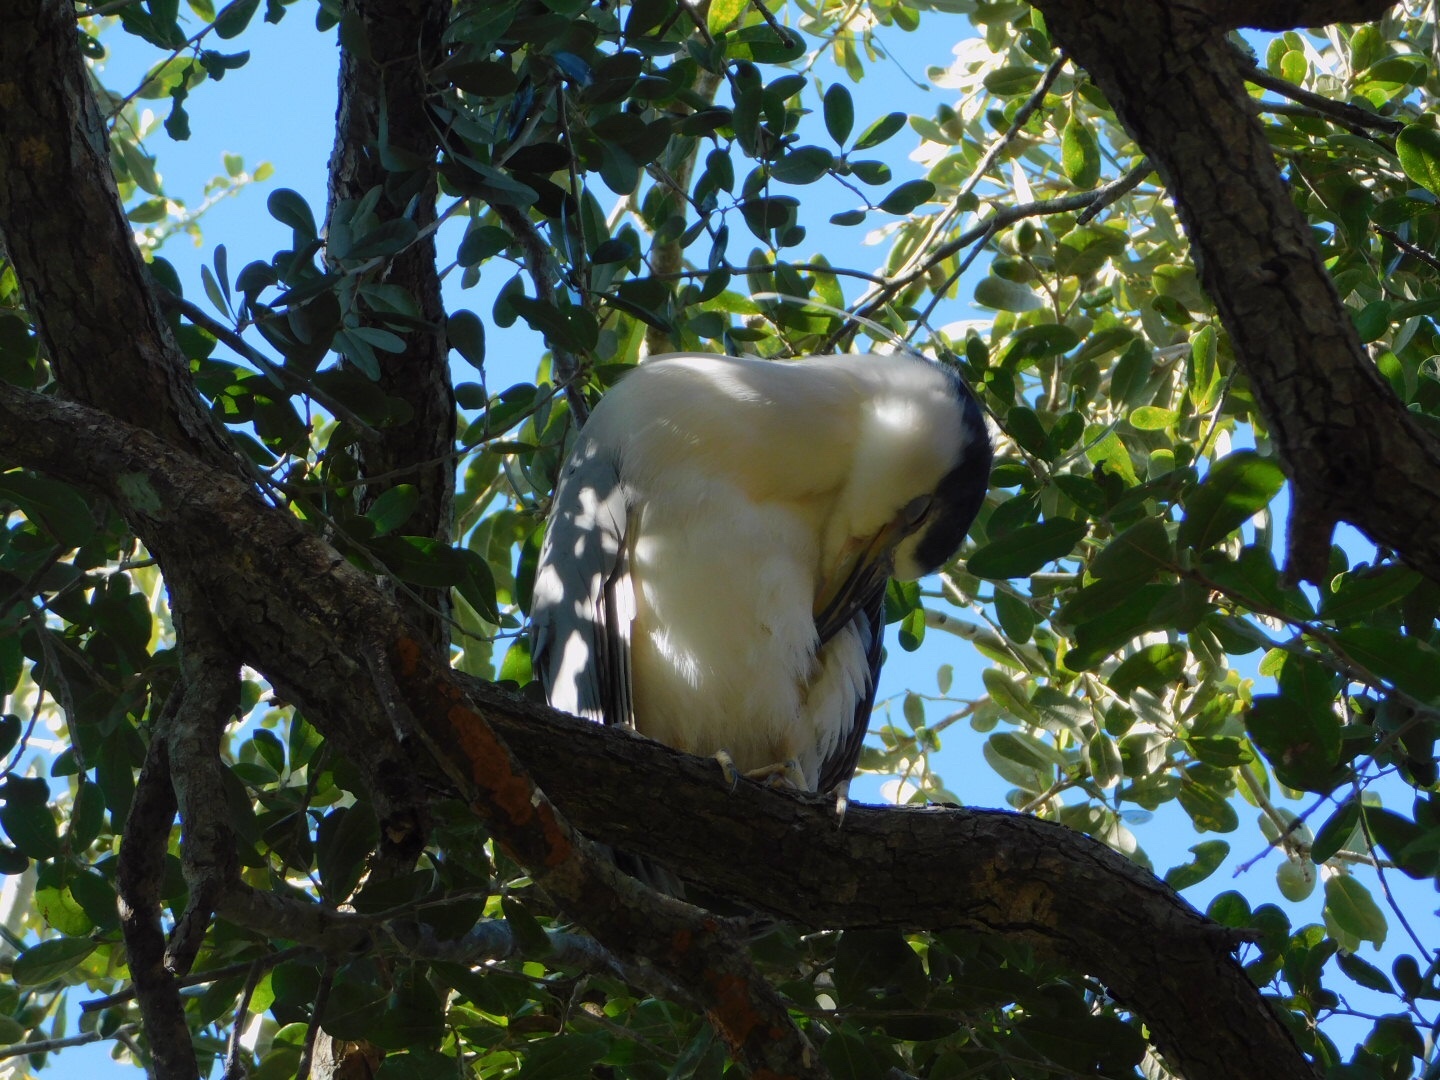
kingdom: Animalia
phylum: Chordata
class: Aves
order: Pelecaniformes
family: Ardeidae
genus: Nycticorax
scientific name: Nycticorax nycticorax
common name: Black-crowned night heron
